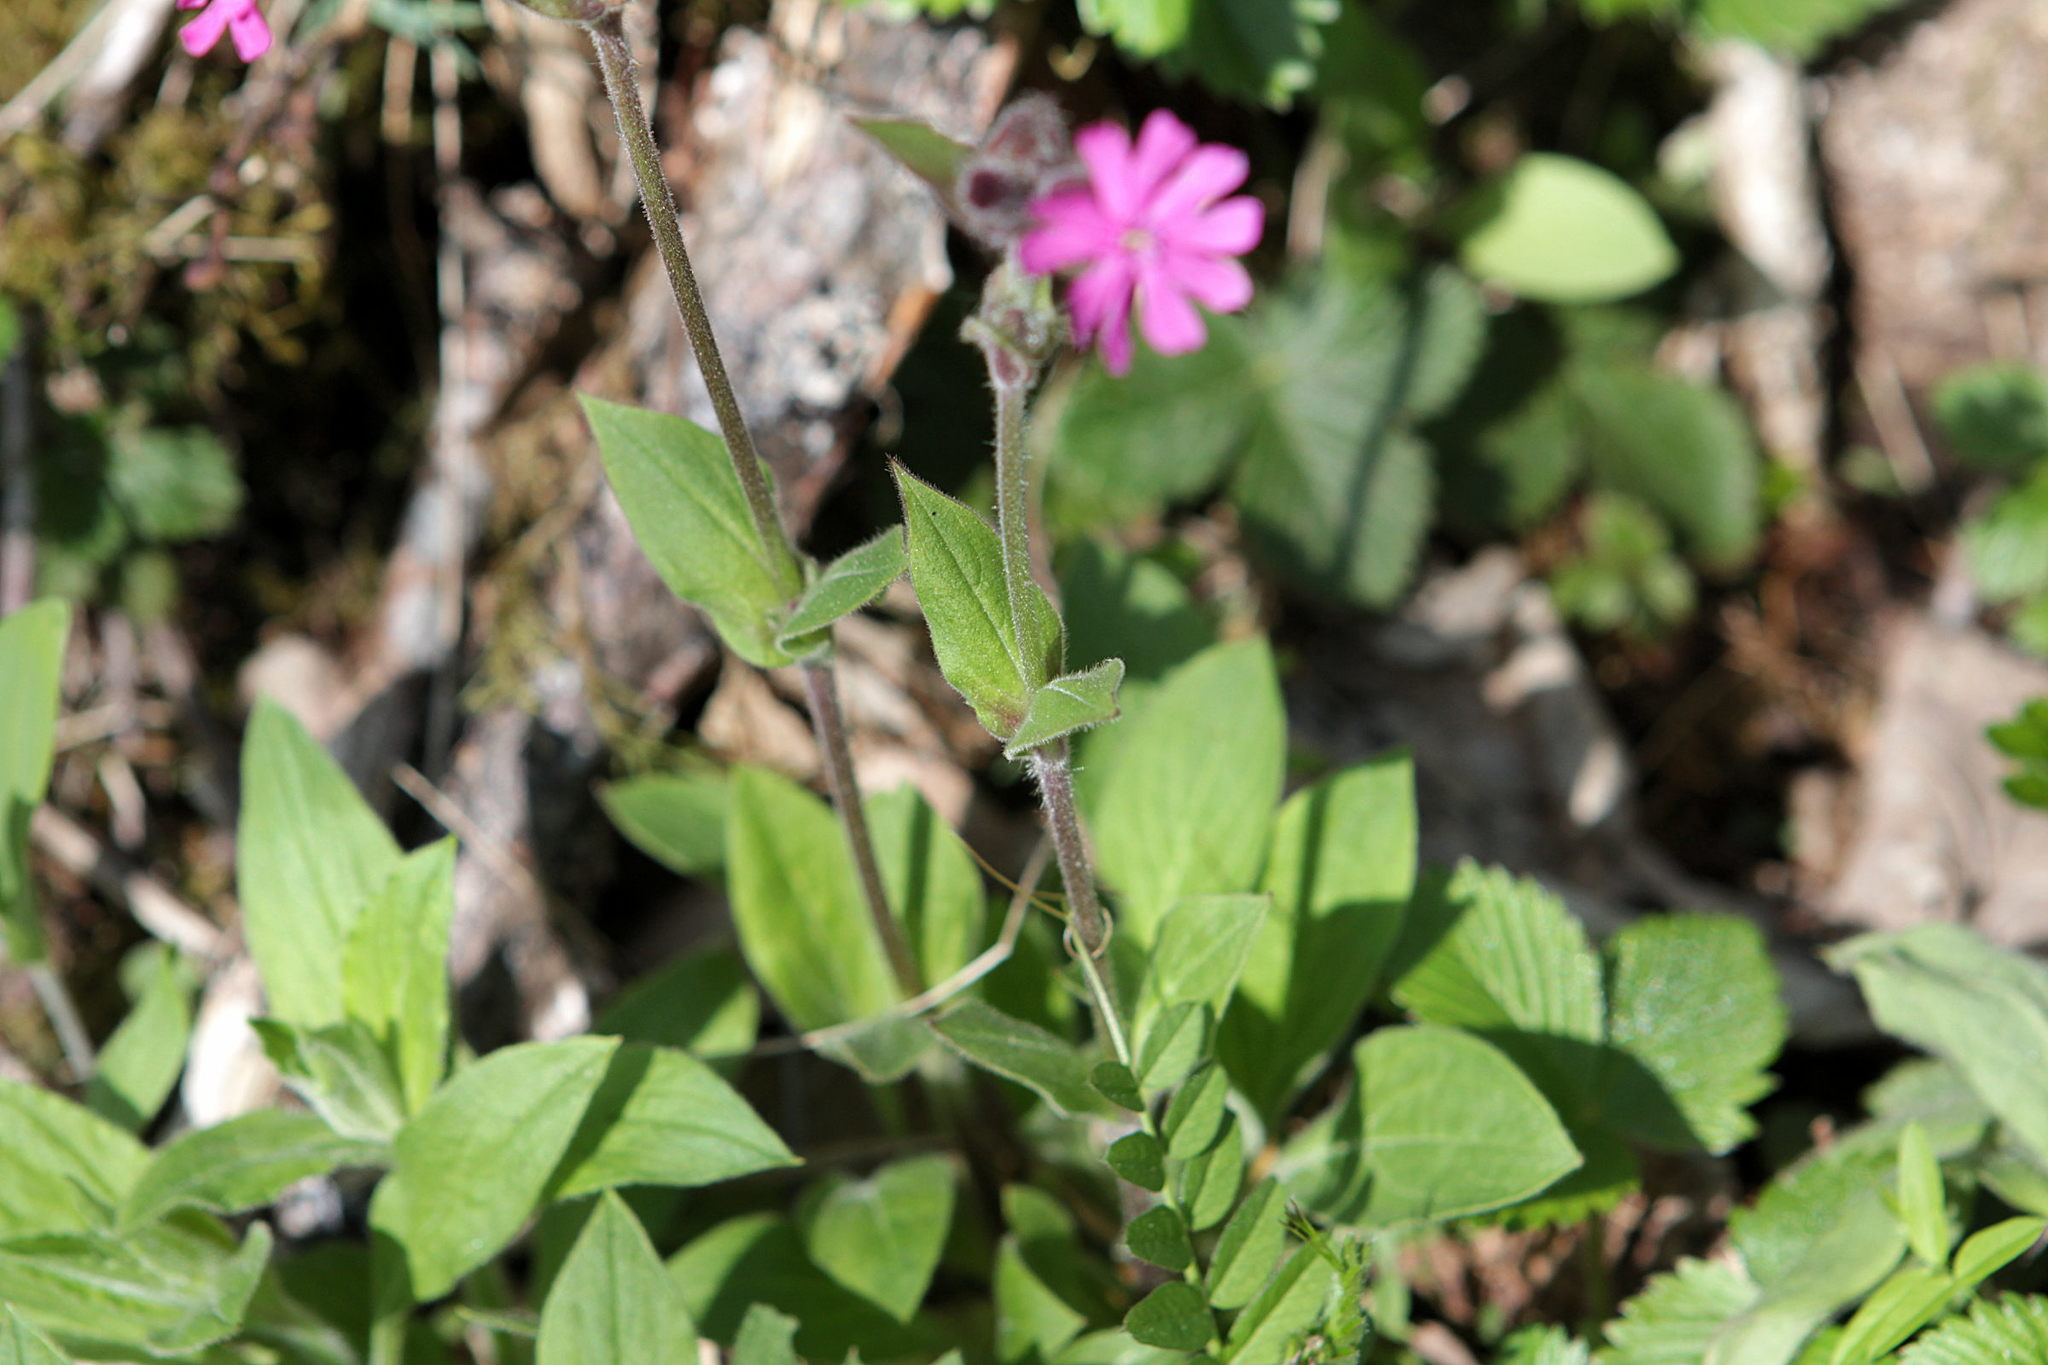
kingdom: Plantae
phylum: Tracheophyta
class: Magnoliopsida
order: Caryophyllales
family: Caryophyllaceae
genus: Silene
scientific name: Silene dioica
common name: Red campion
